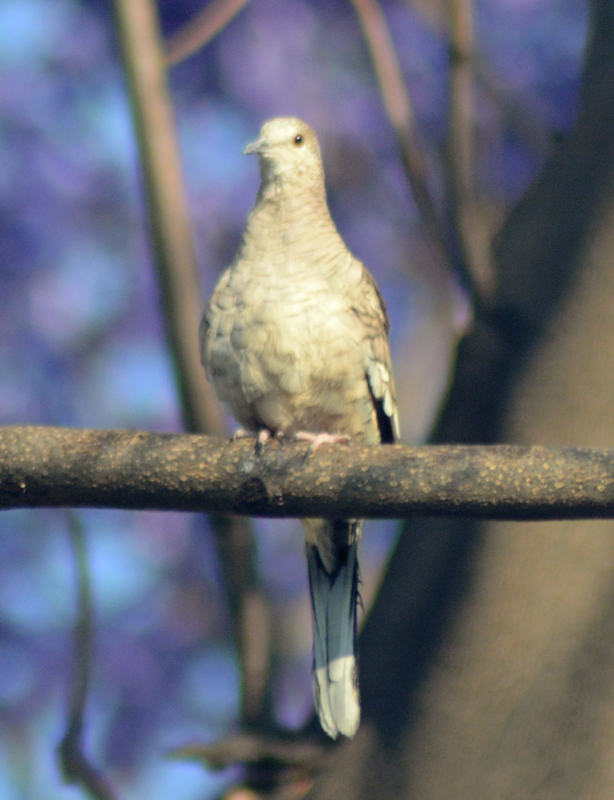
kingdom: Animalia
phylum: Chordata
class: Aves
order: Columbiformes
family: Columbidae
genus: Columbina
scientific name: Columbina inca
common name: Inca dove
